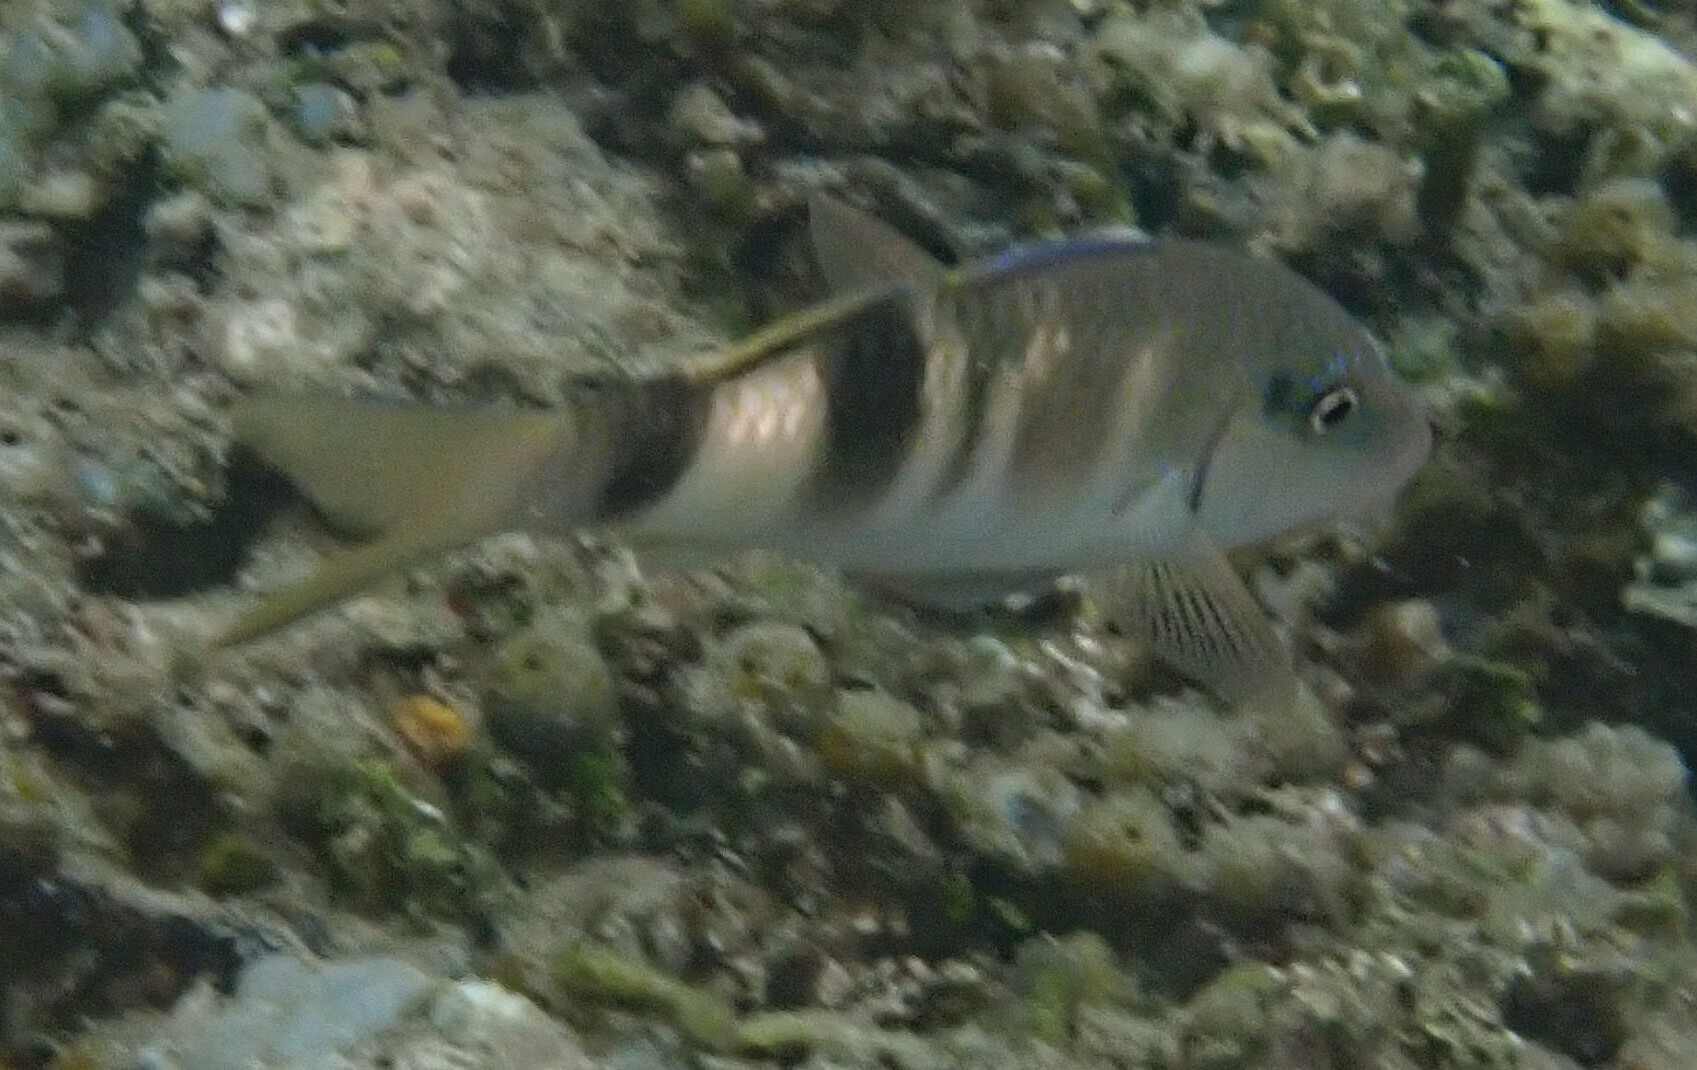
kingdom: Animalia
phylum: Chordata
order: Perciformes
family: Mullidae
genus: Parupeneus
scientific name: Parupeneus multifasciatus
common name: Manybar goatfish
